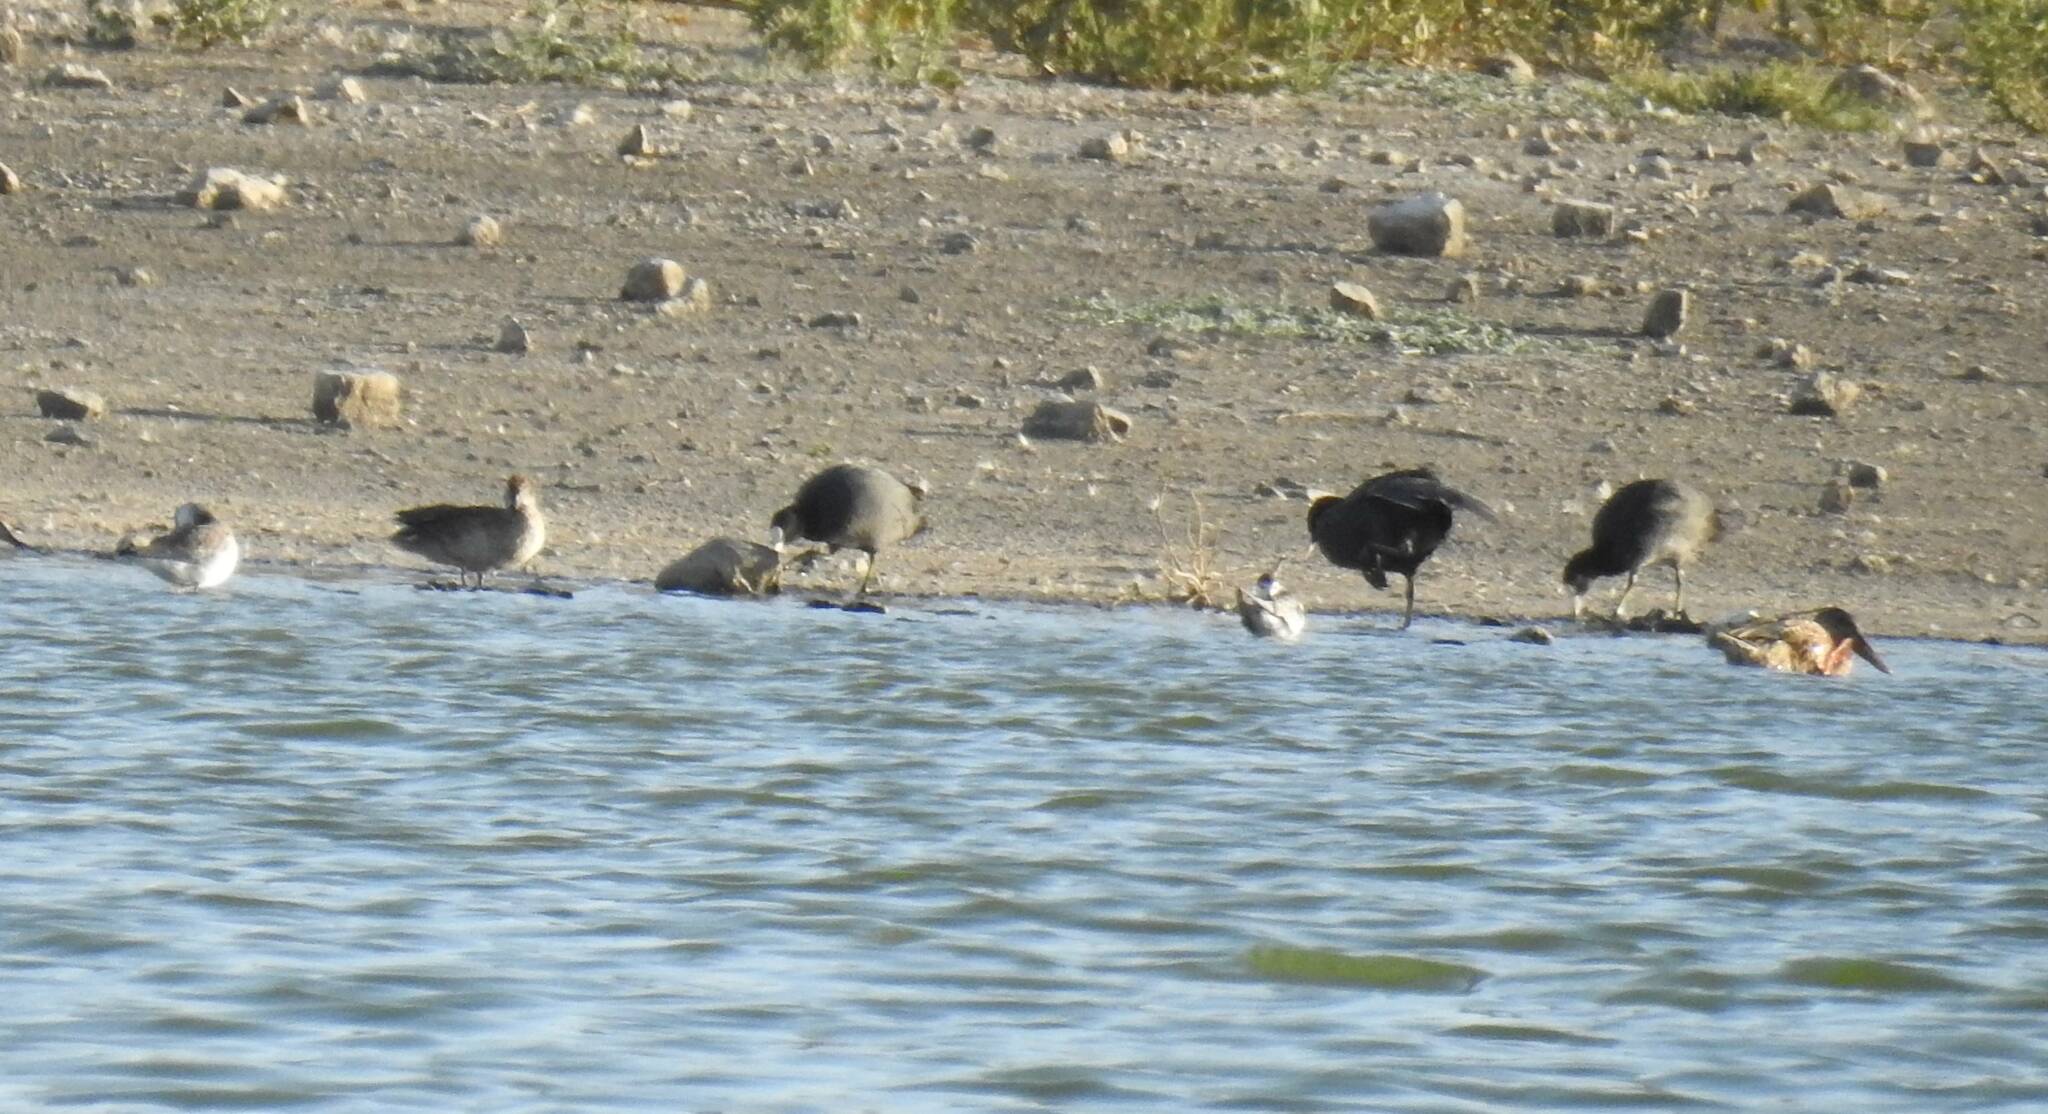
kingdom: Animalia
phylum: Chordata
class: Aves
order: Gruiformes
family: Rallidae
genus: Fulica
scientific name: Fulica atra
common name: Eurasian coot
